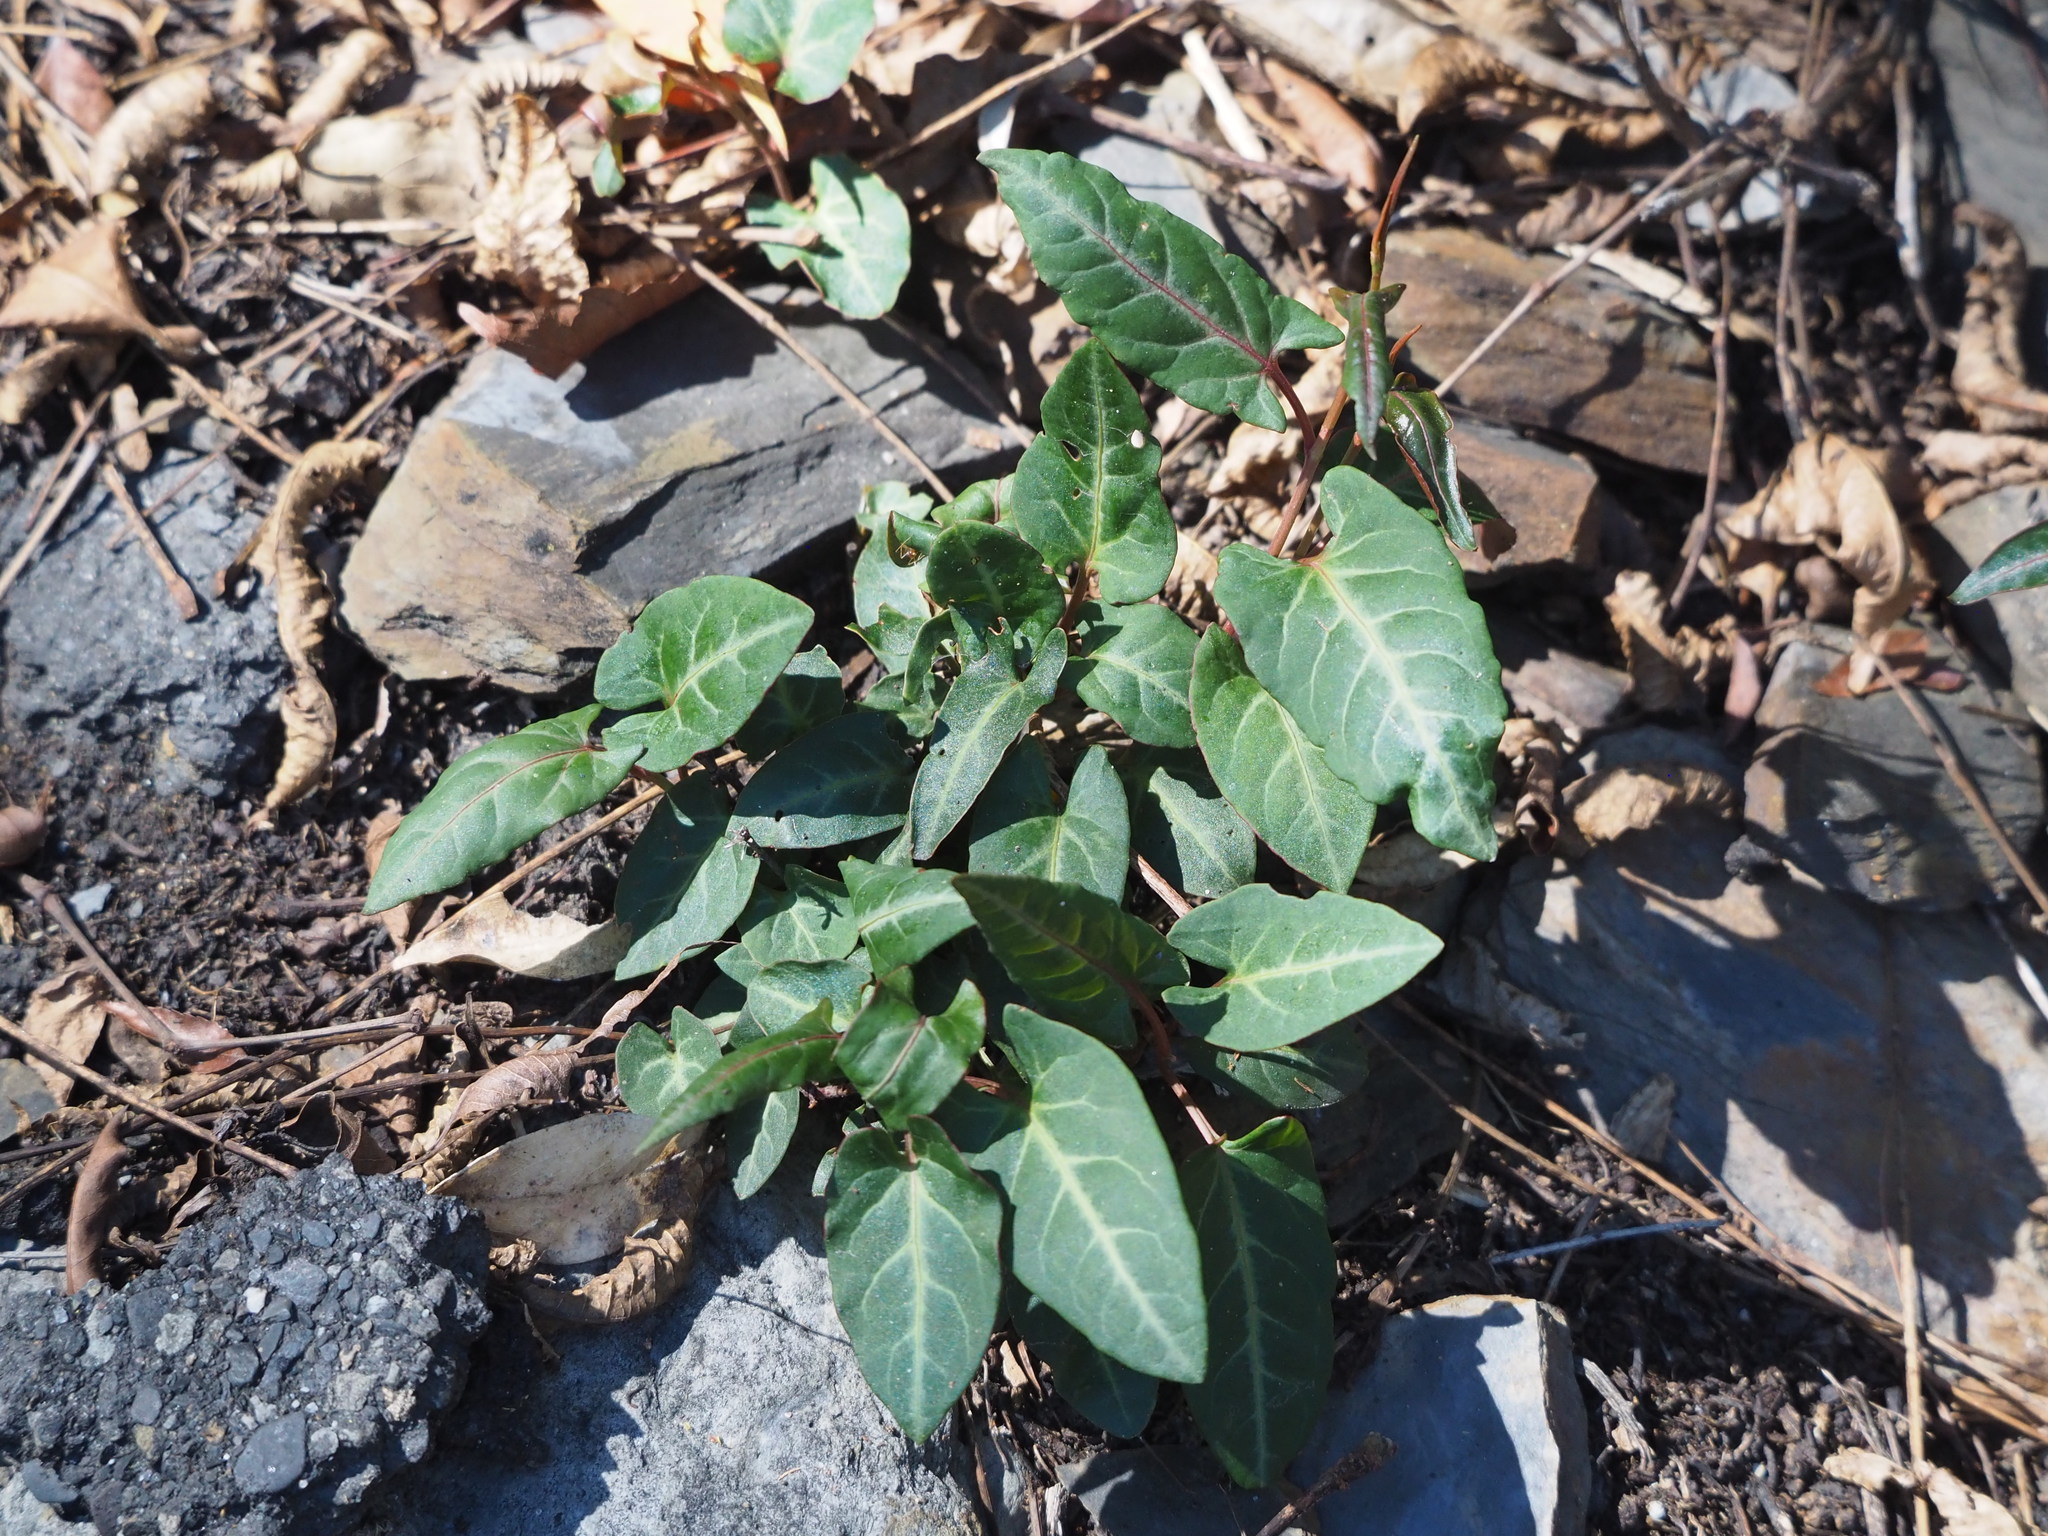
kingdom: Plantae
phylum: Tracheophyta
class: Magnoliopsida
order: Caryophyllales
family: Polygonaceae
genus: Reynoutria
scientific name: Reynoutria multiflora
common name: Chinese fleeceflower
